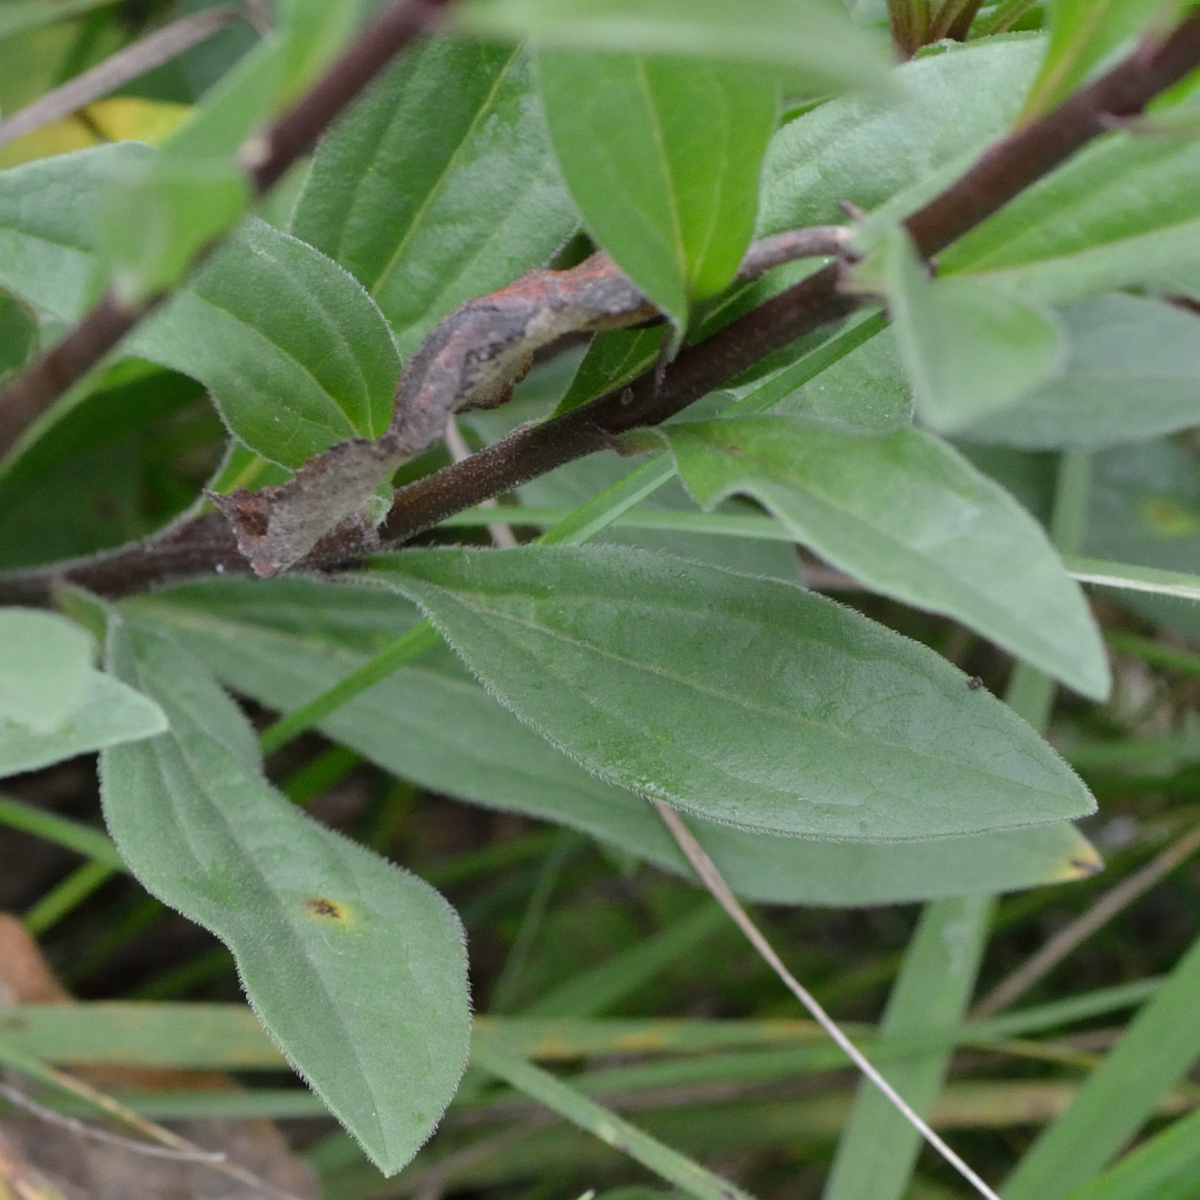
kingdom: Plantae
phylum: Tracheophyta
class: Magnoliopsida
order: Asterales
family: Asteraceae
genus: Aster
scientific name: Aster amellus
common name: European michaelmas daisy
